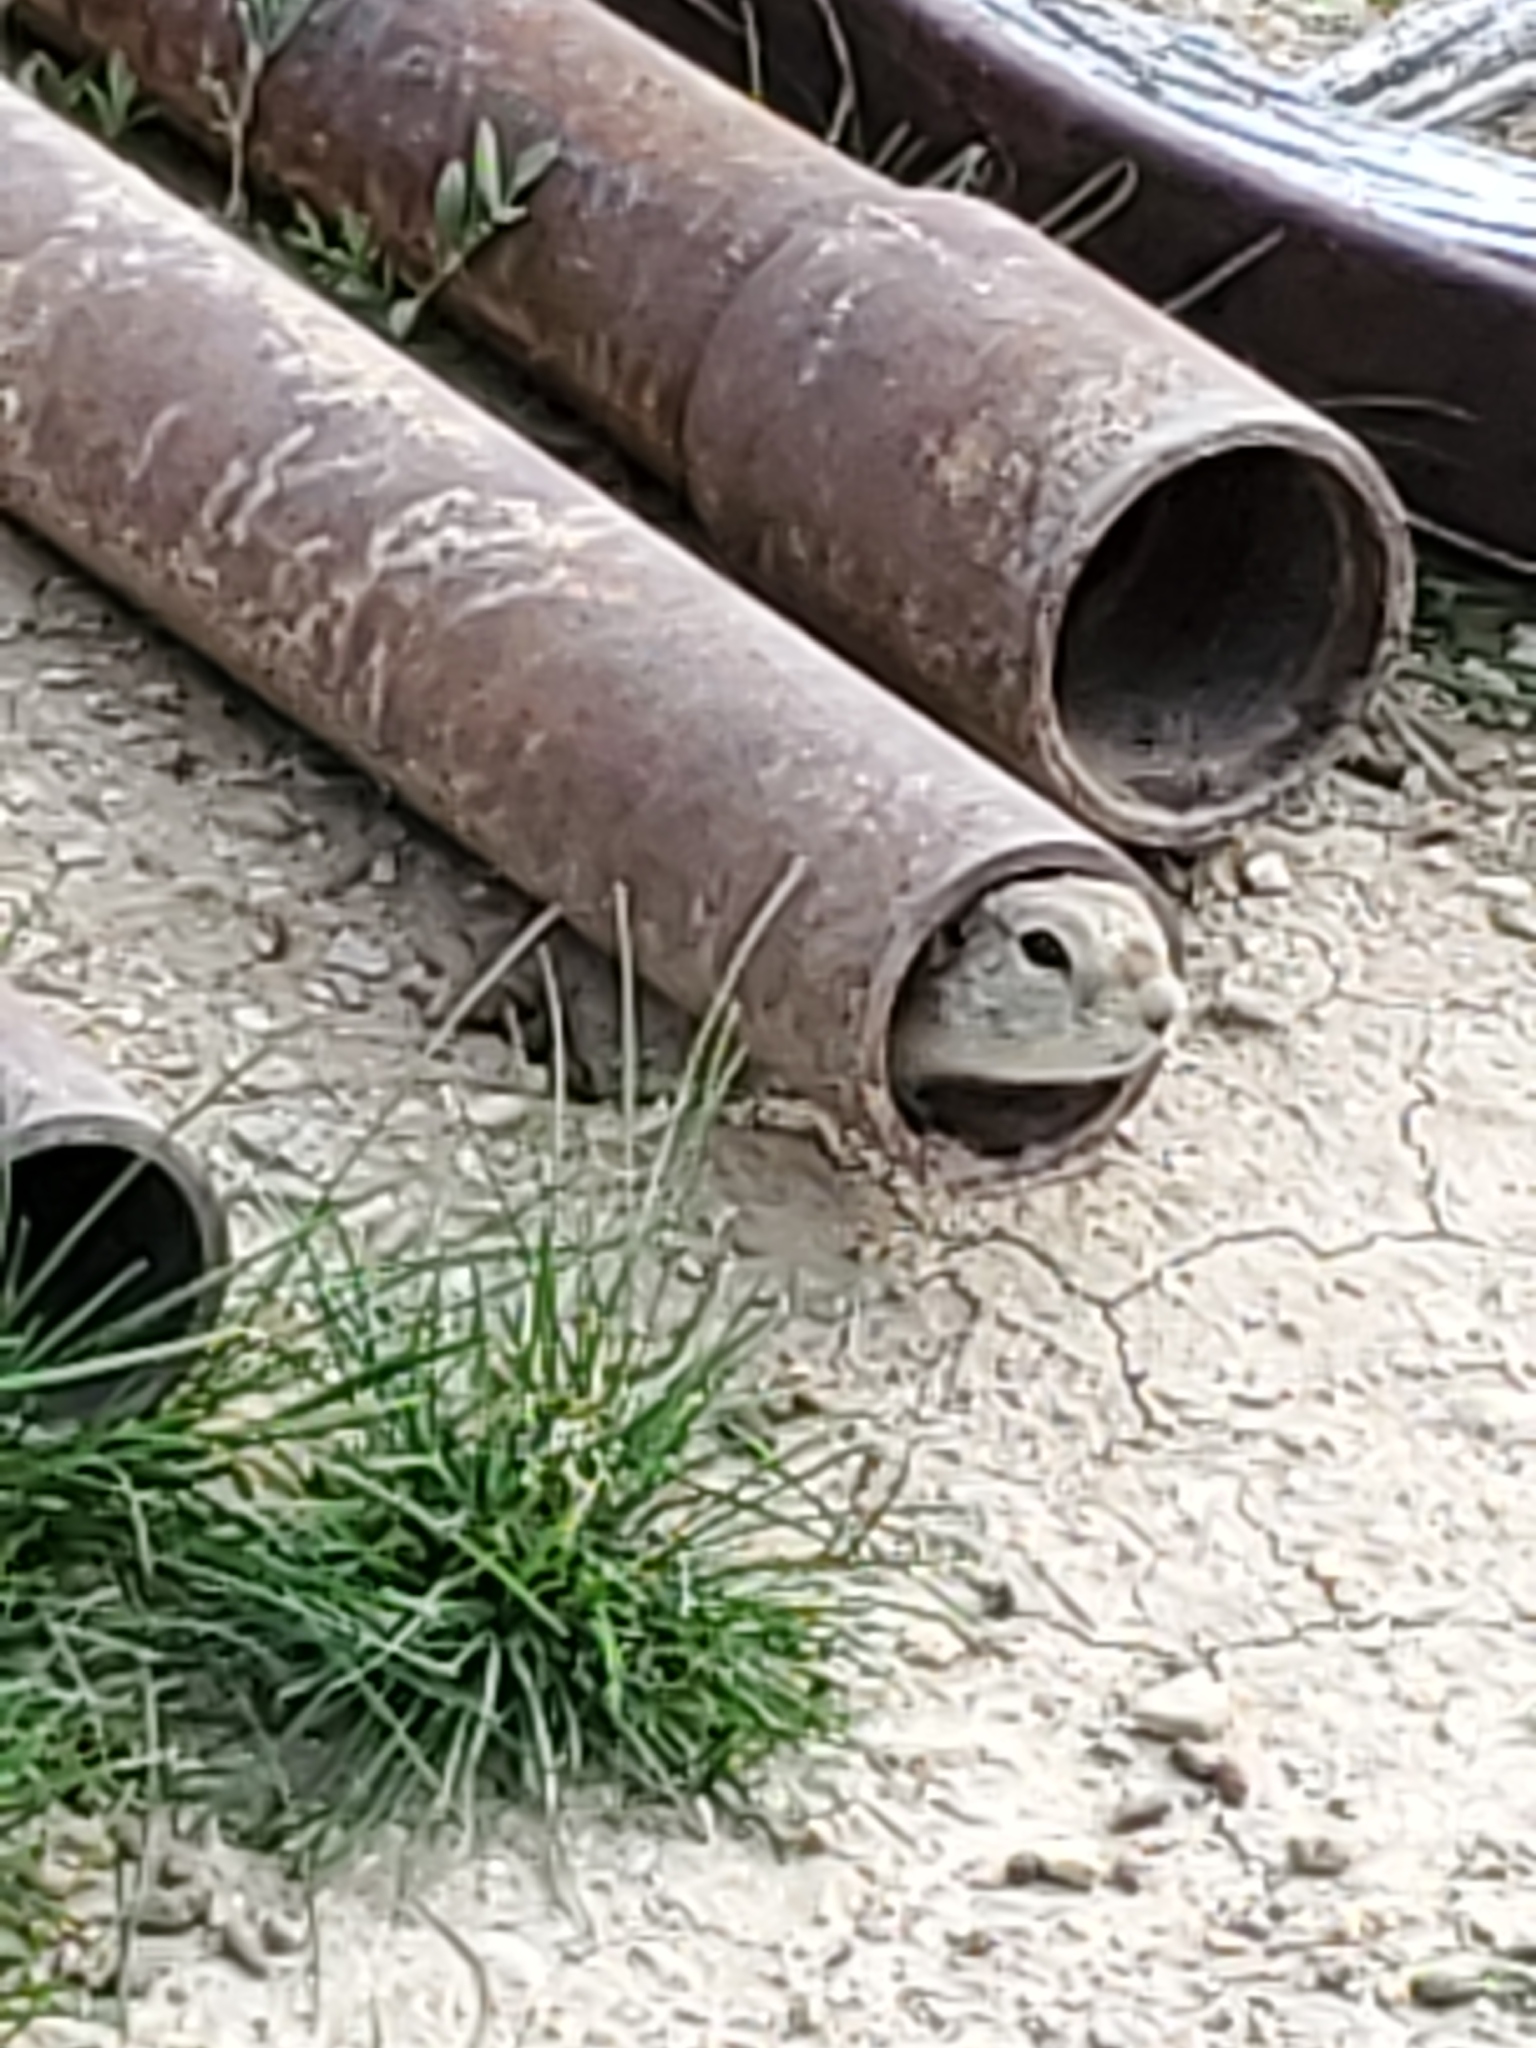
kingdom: Animalia
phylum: Chordata
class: Mammalia
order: Rodentia
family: Sciuridae
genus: Urocitellus
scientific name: Urocitellus richardsonii
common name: Richardson's ground squirrel
